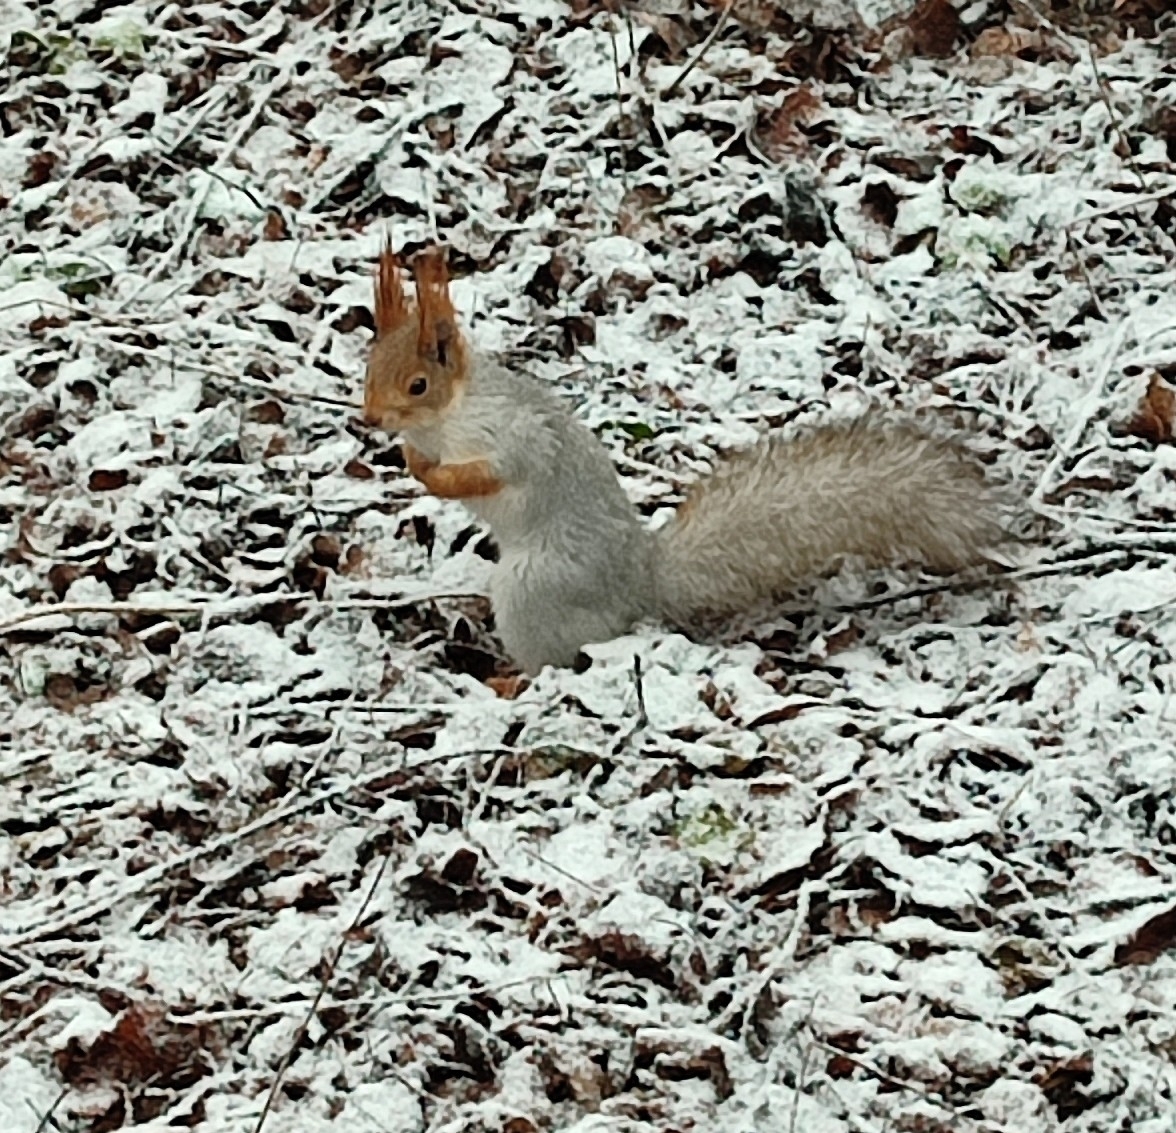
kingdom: Animalia
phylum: Chordata
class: Mammalia
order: Rodentia
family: Sciuridae
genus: Sciurus
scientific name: Sciurus vulgaris
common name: Eurasian red squirrel
